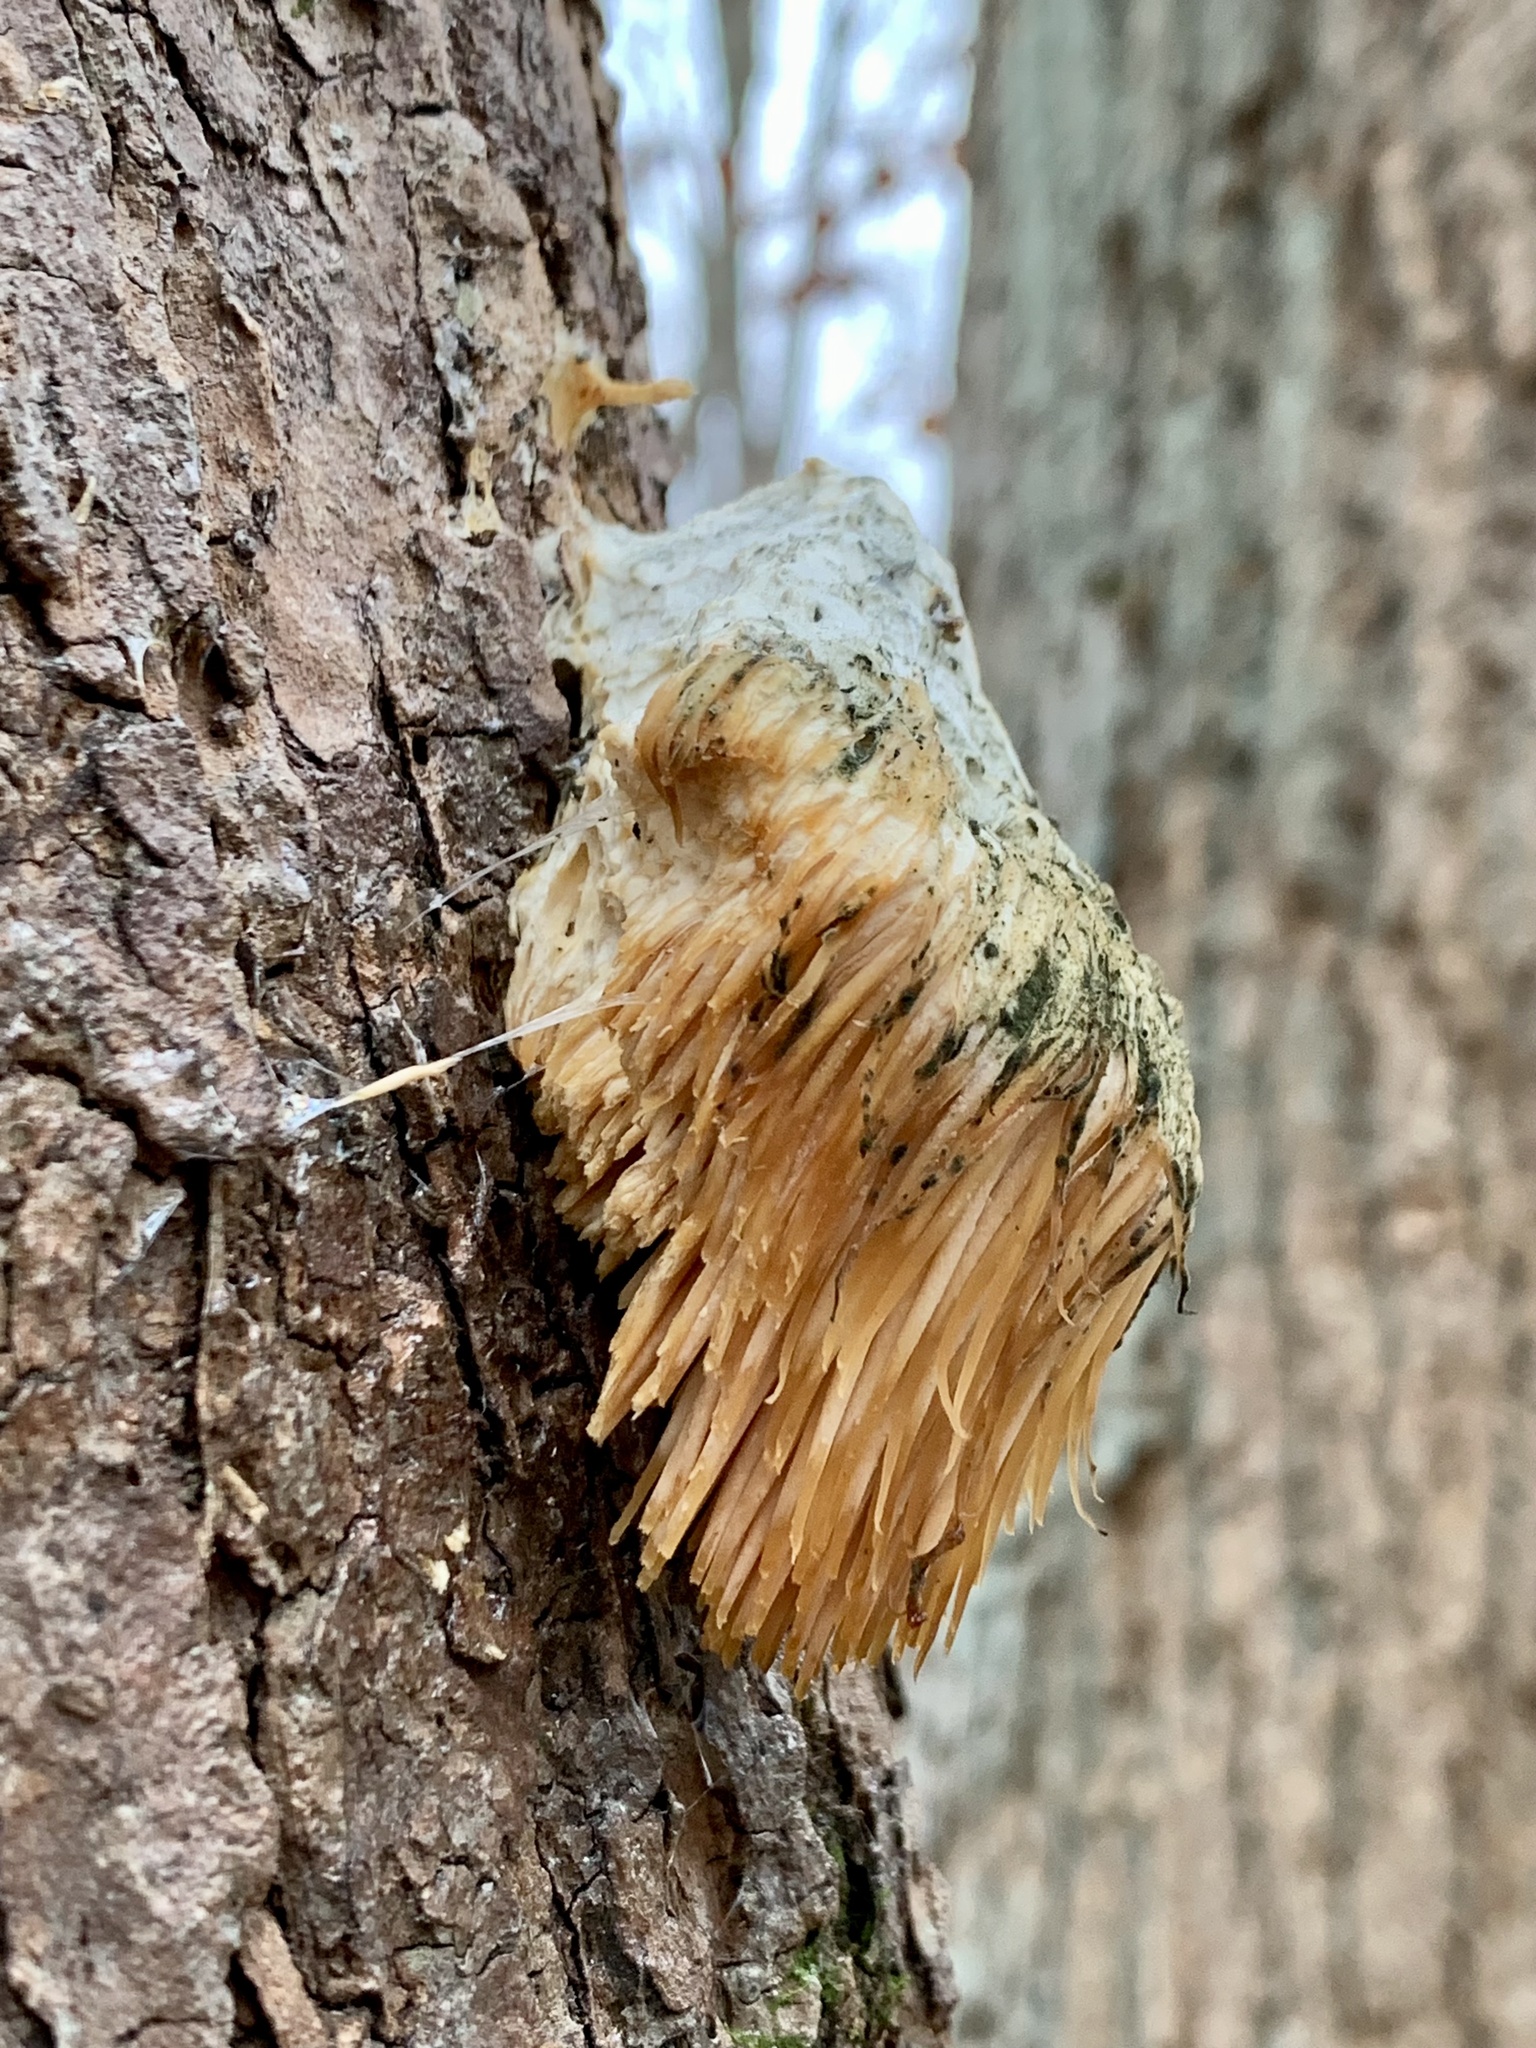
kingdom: Fungi
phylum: Basidiomycota
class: Agaricomycetes
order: Russulales
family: Hericiaceae
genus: Hericium
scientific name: Hericium erinaceus
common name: Bearded tooth
